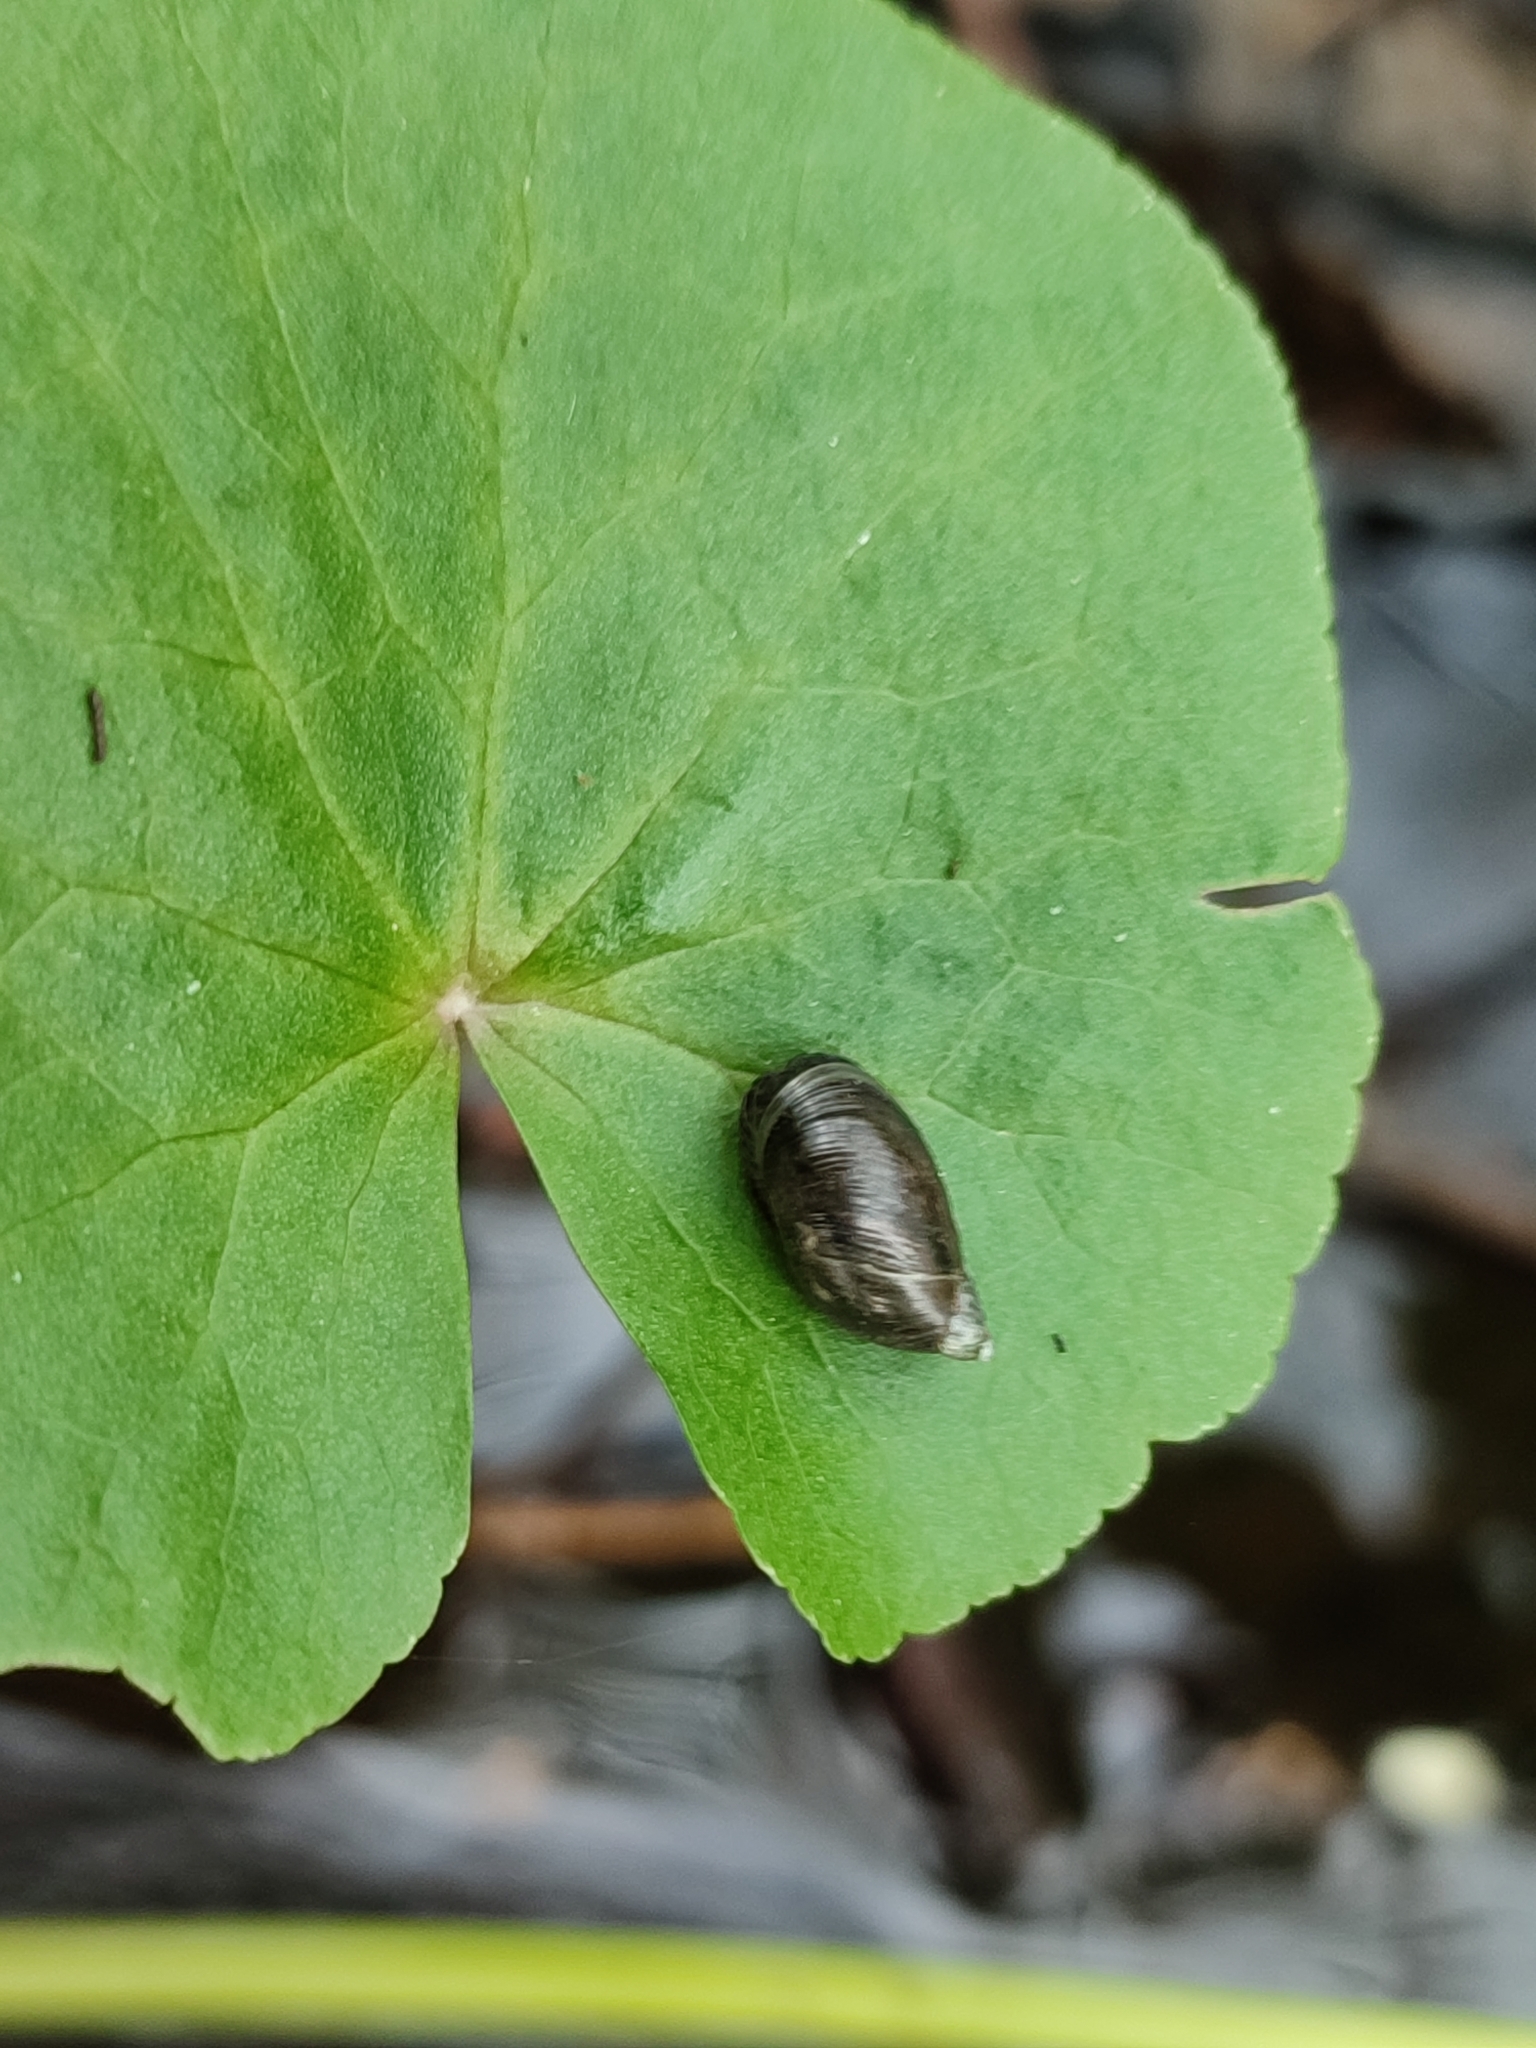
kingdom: Animalia
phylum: Mollusca
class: Gastropoda
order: Stylommatophora
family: Succineidae
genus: Succinea
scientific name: Succinea putris
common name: European ambersnail
